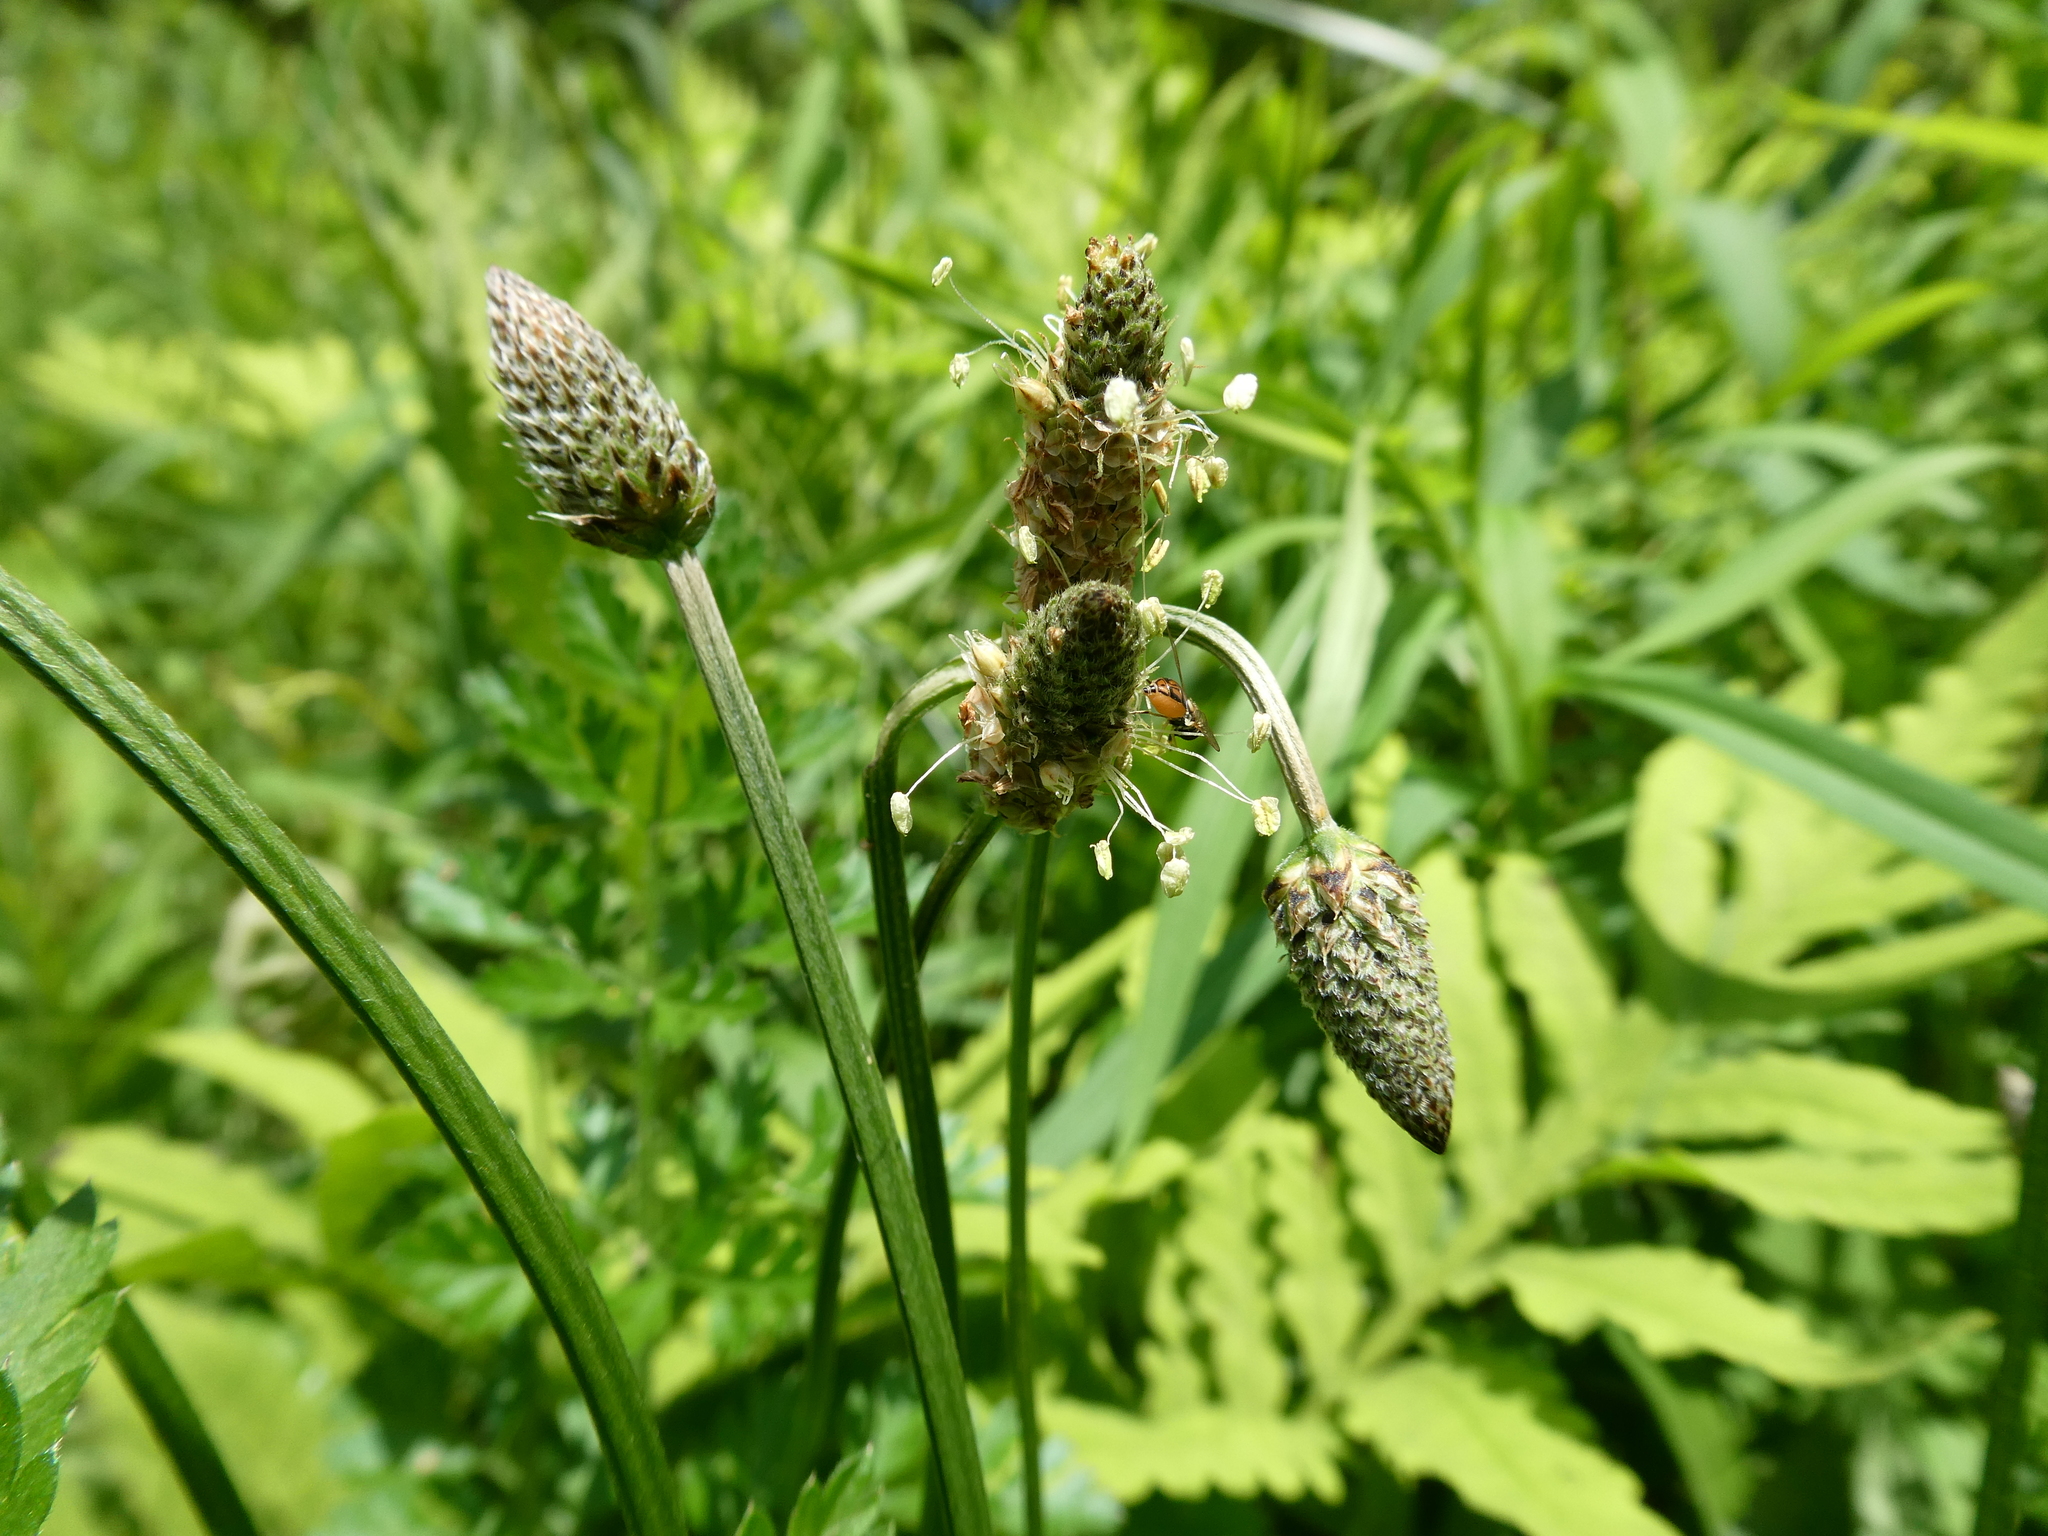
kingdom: Animalia
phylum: Arthropoda
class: Insecta
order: Diptera
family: Syrphidae
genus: Toxomerus
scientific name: Toxomerus marginatus
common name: Syrphid fly
